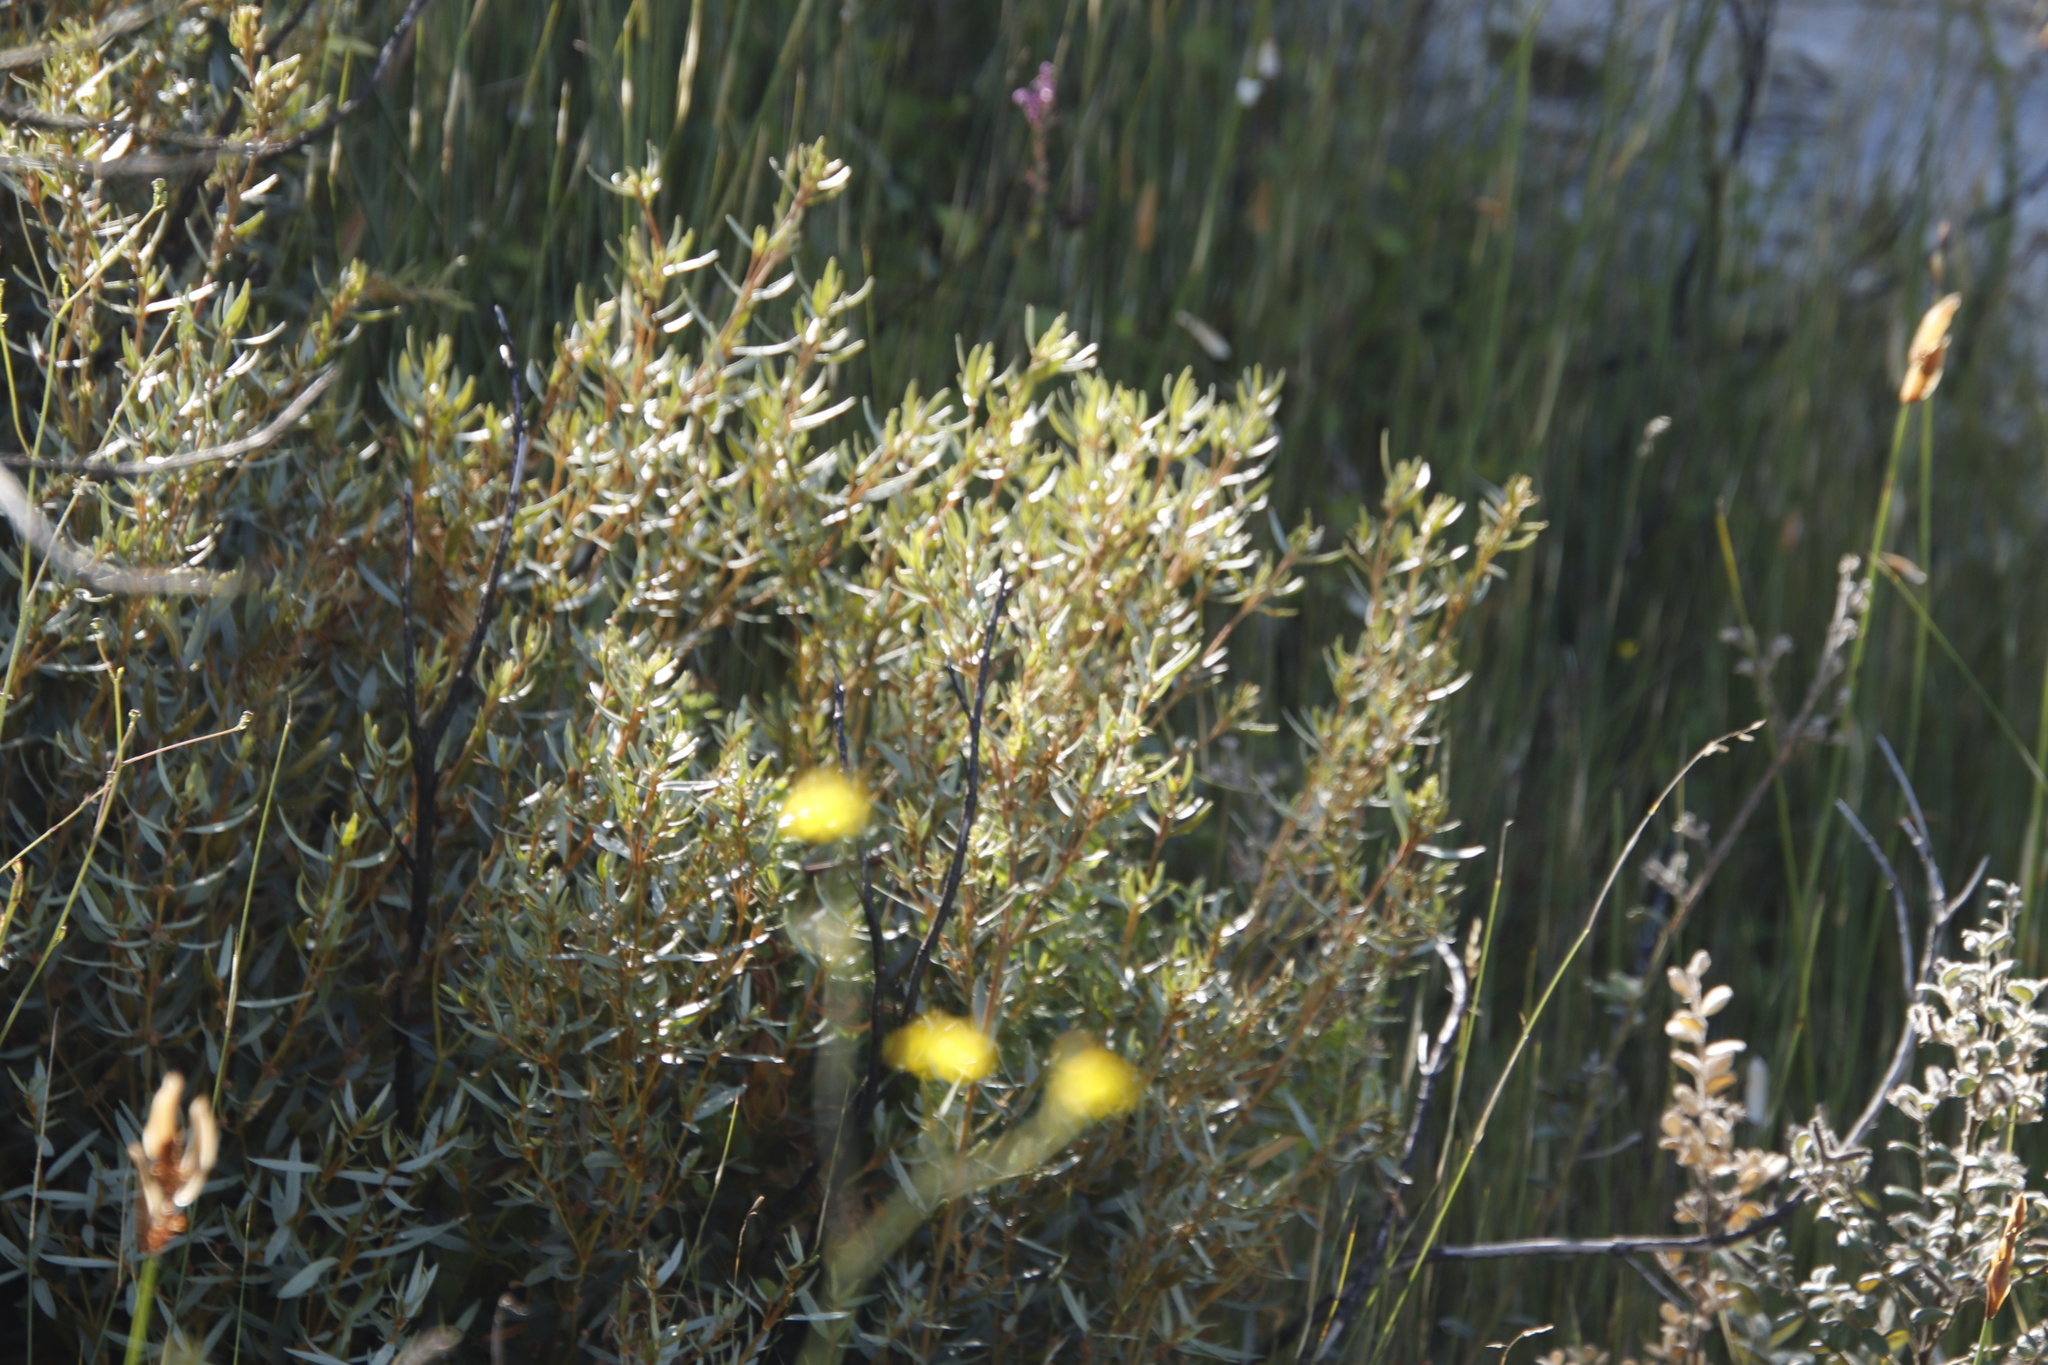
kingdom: Plantae
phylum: Tracheophyta
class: Magnoliopsida
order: Cornales
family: Grubbiaceae
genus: Grubbia
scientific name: Grubbia tomentosa
